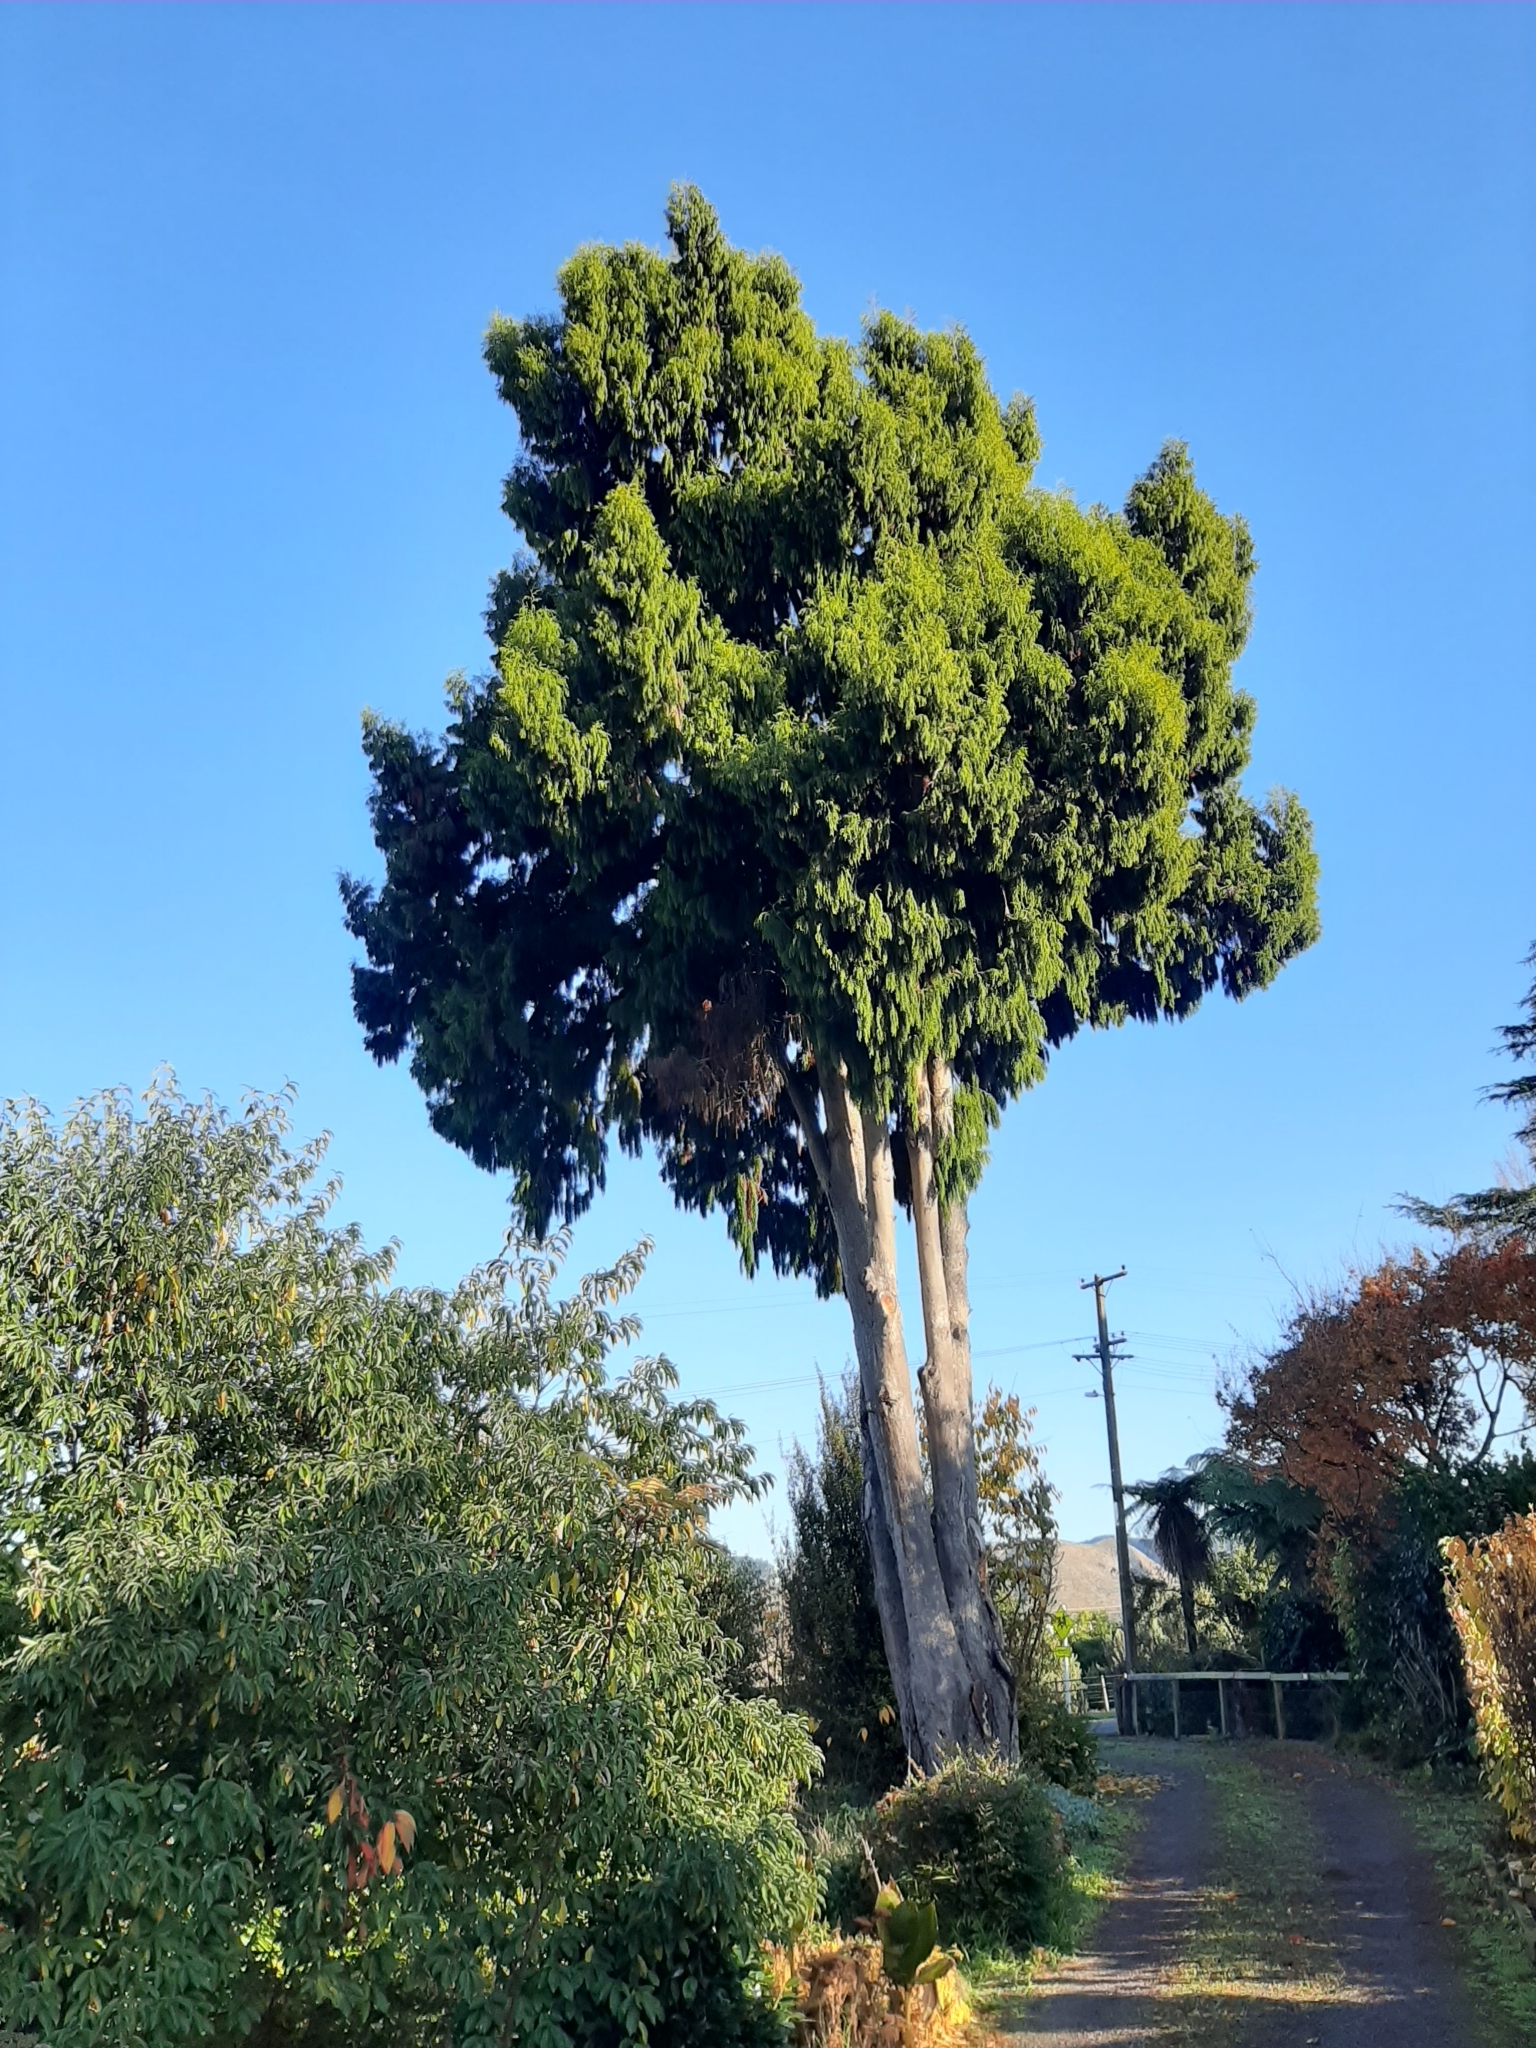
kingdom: Plantae
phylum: Tracheophyta
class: Pinopsida
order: Pinales
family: Podocarpaceae
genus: Dacrydium
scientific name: Dacrydium cupressinum
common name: Red pine
